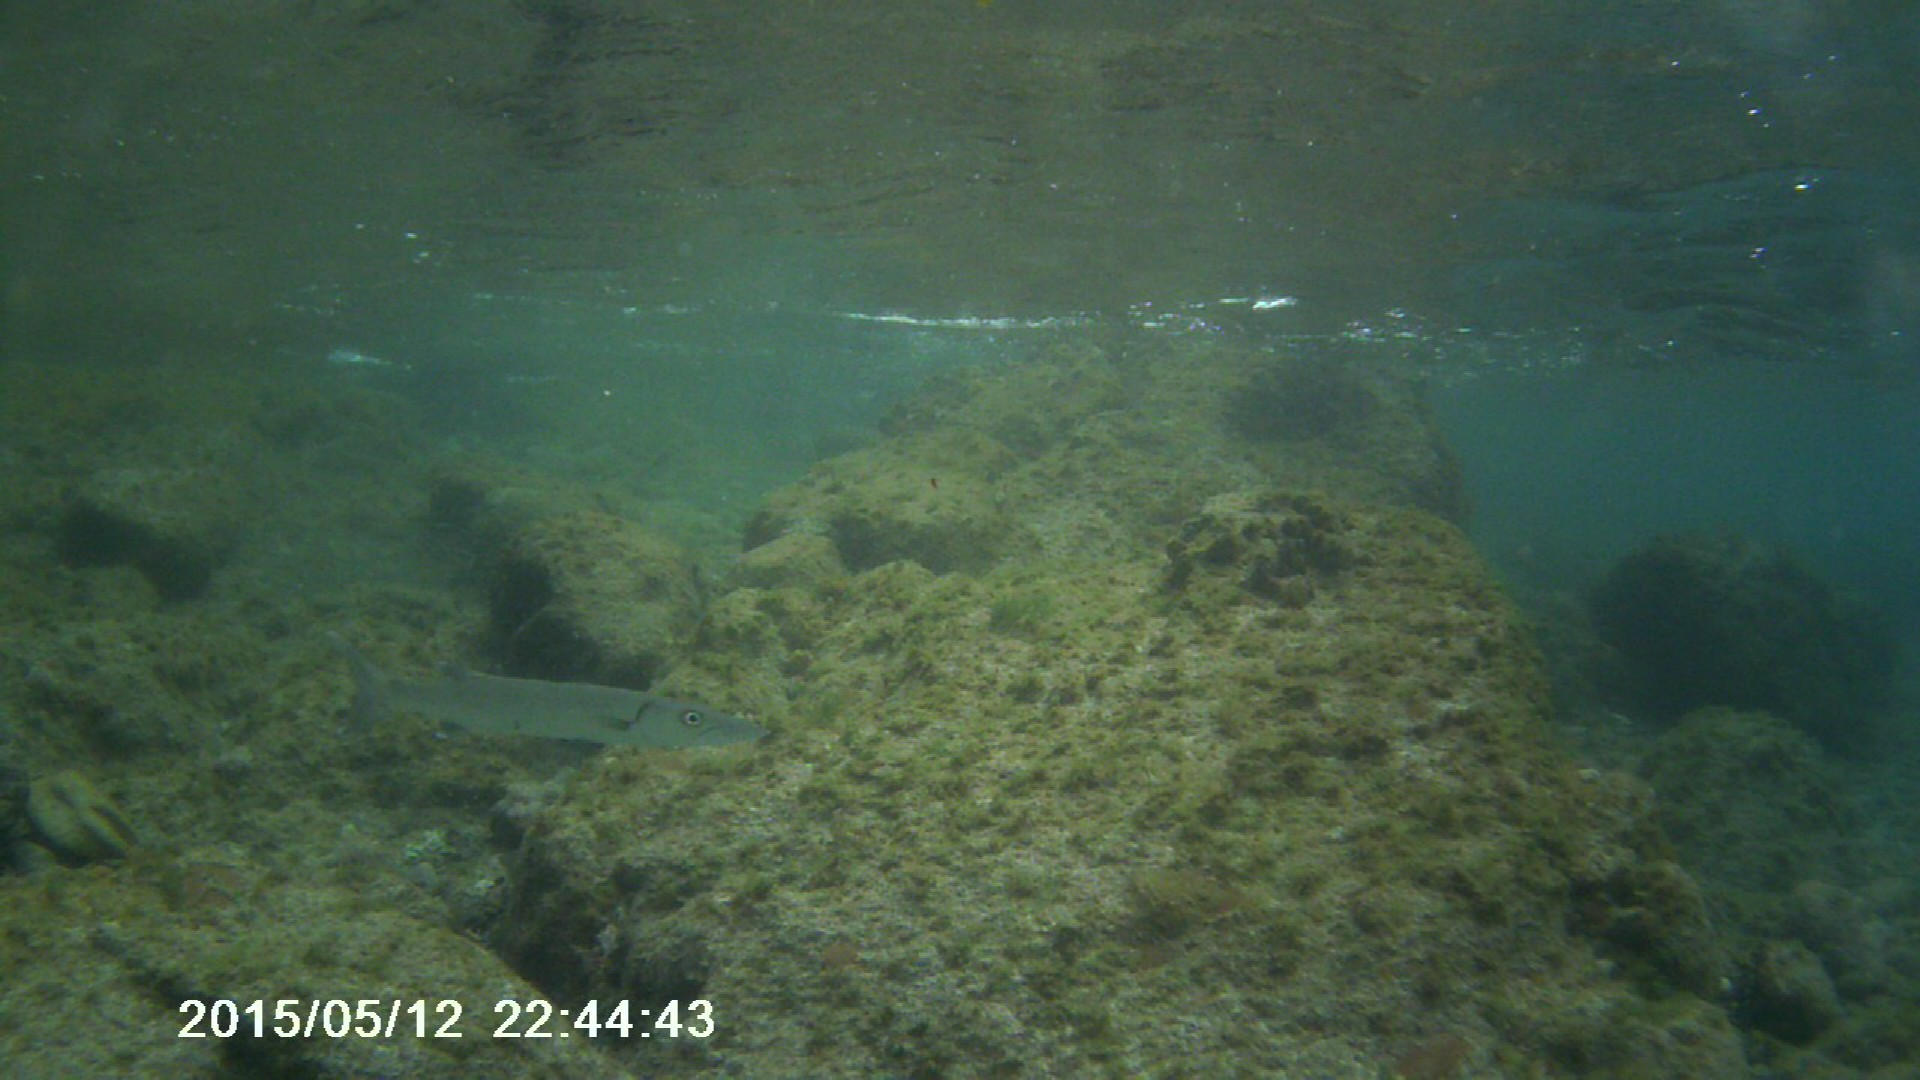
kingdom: Animalia
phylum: Chordata
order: Perciformes
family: Sphyraenidae
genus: Sphyraena
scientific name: Sphyraena barracuda
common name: Great barracuda
